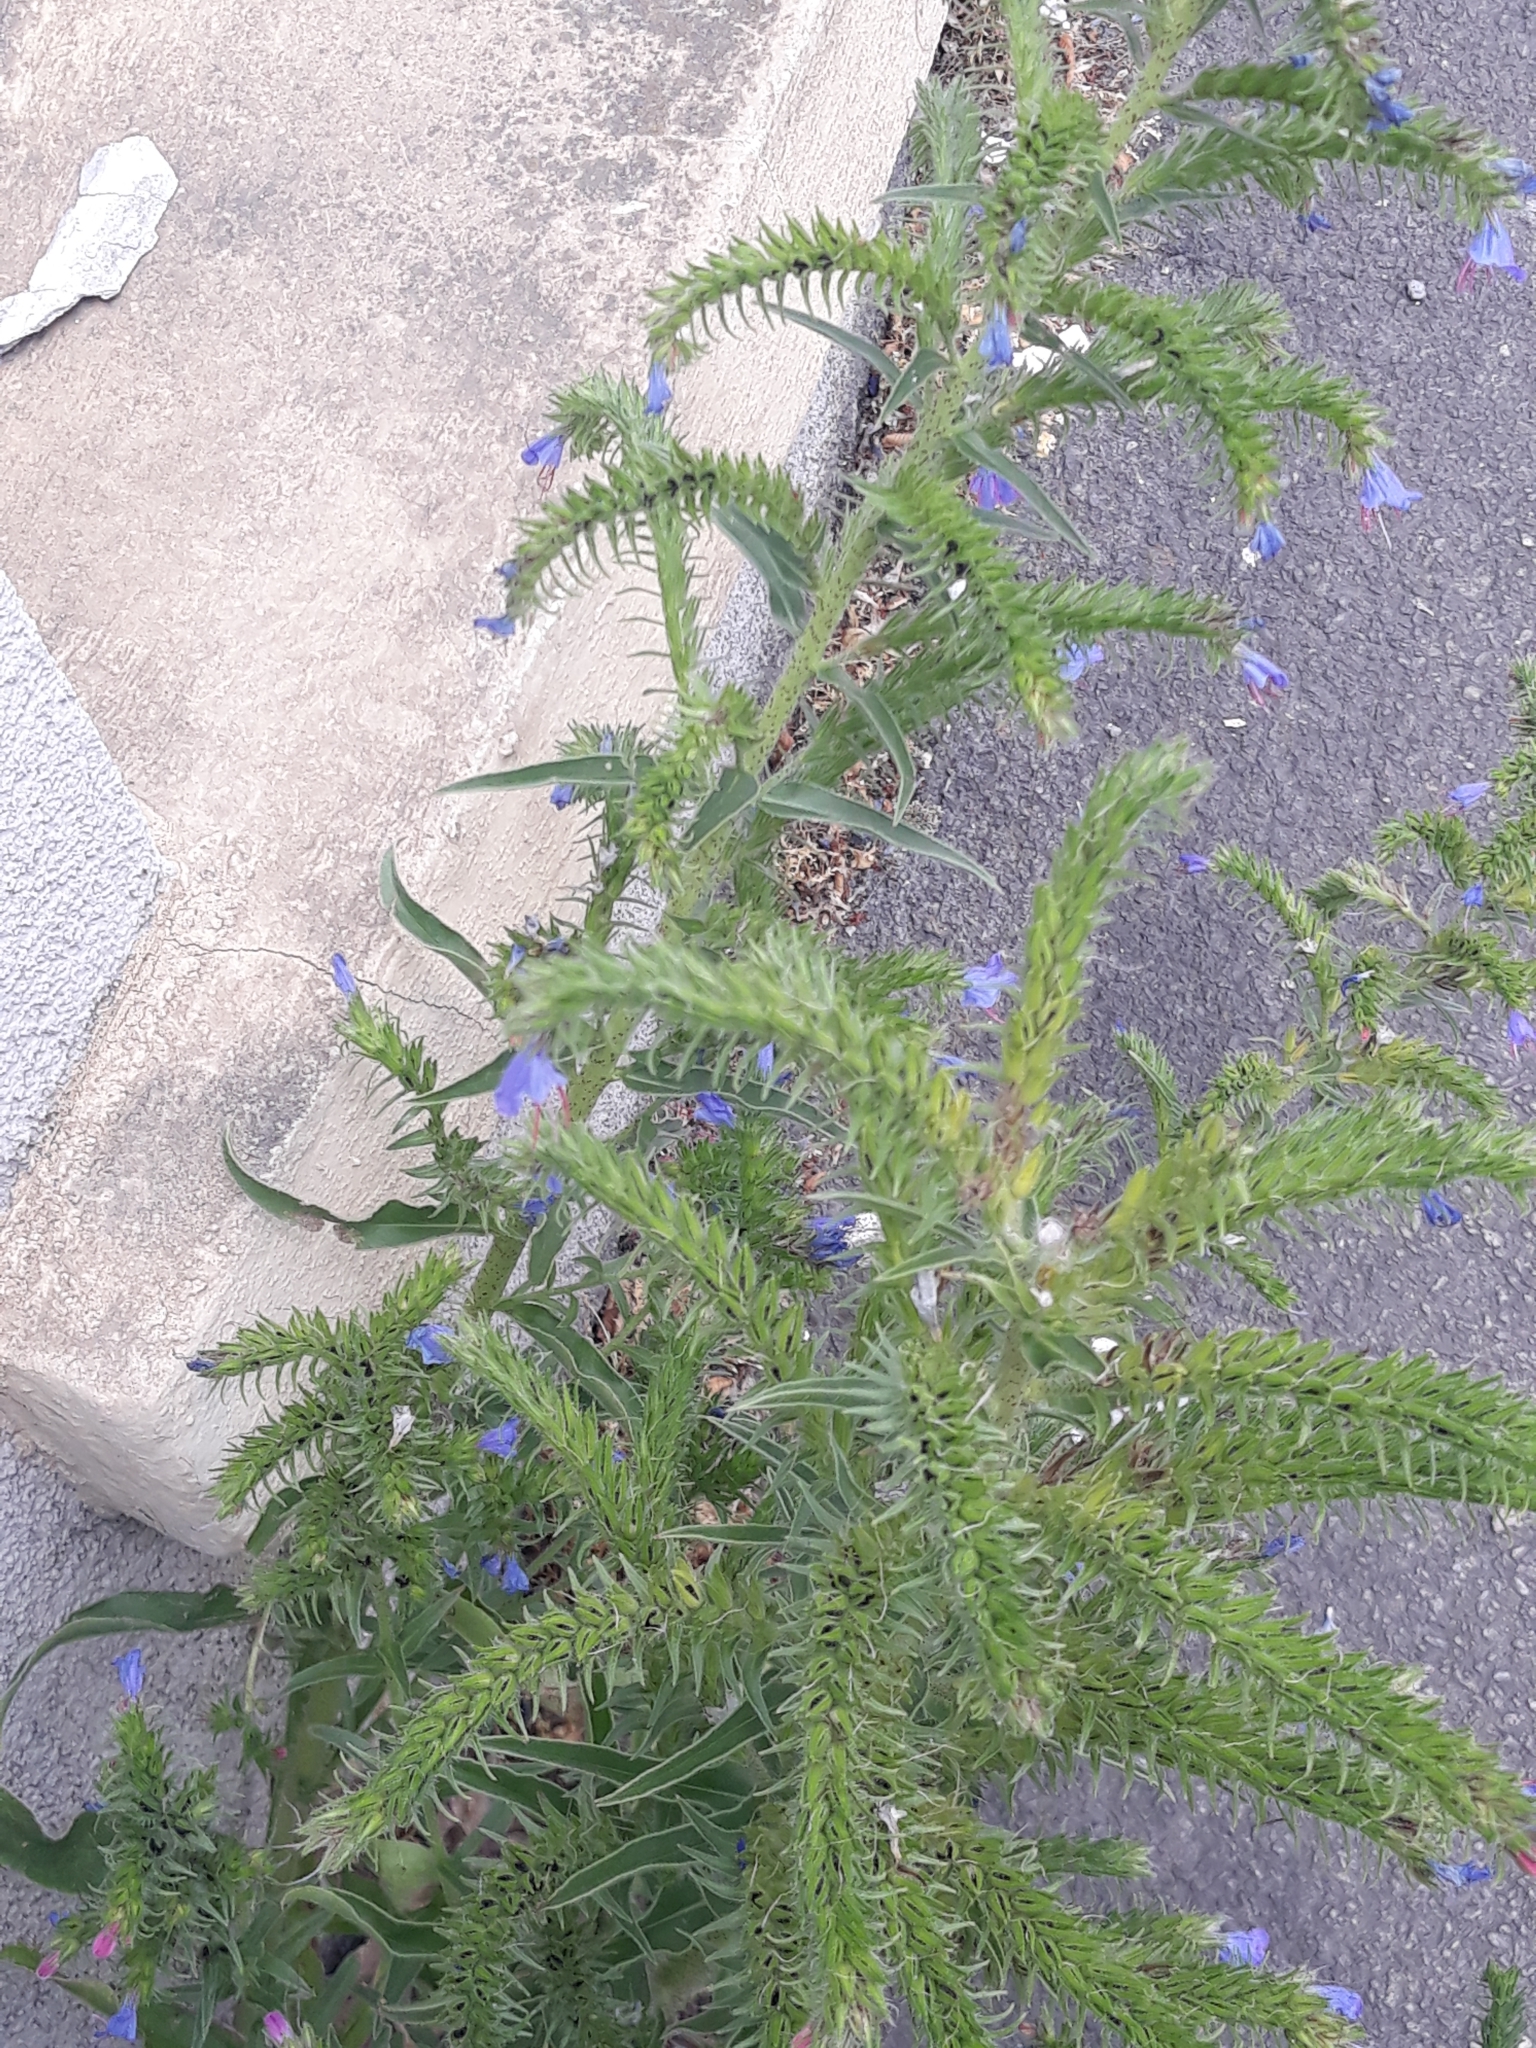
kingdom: Plantae
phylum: Tracheophyta
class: Magnoliopsida
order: Boraginales
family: Boraginaceae
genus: Echium
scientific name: Echium vulgare
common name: Common viper's bugloss
